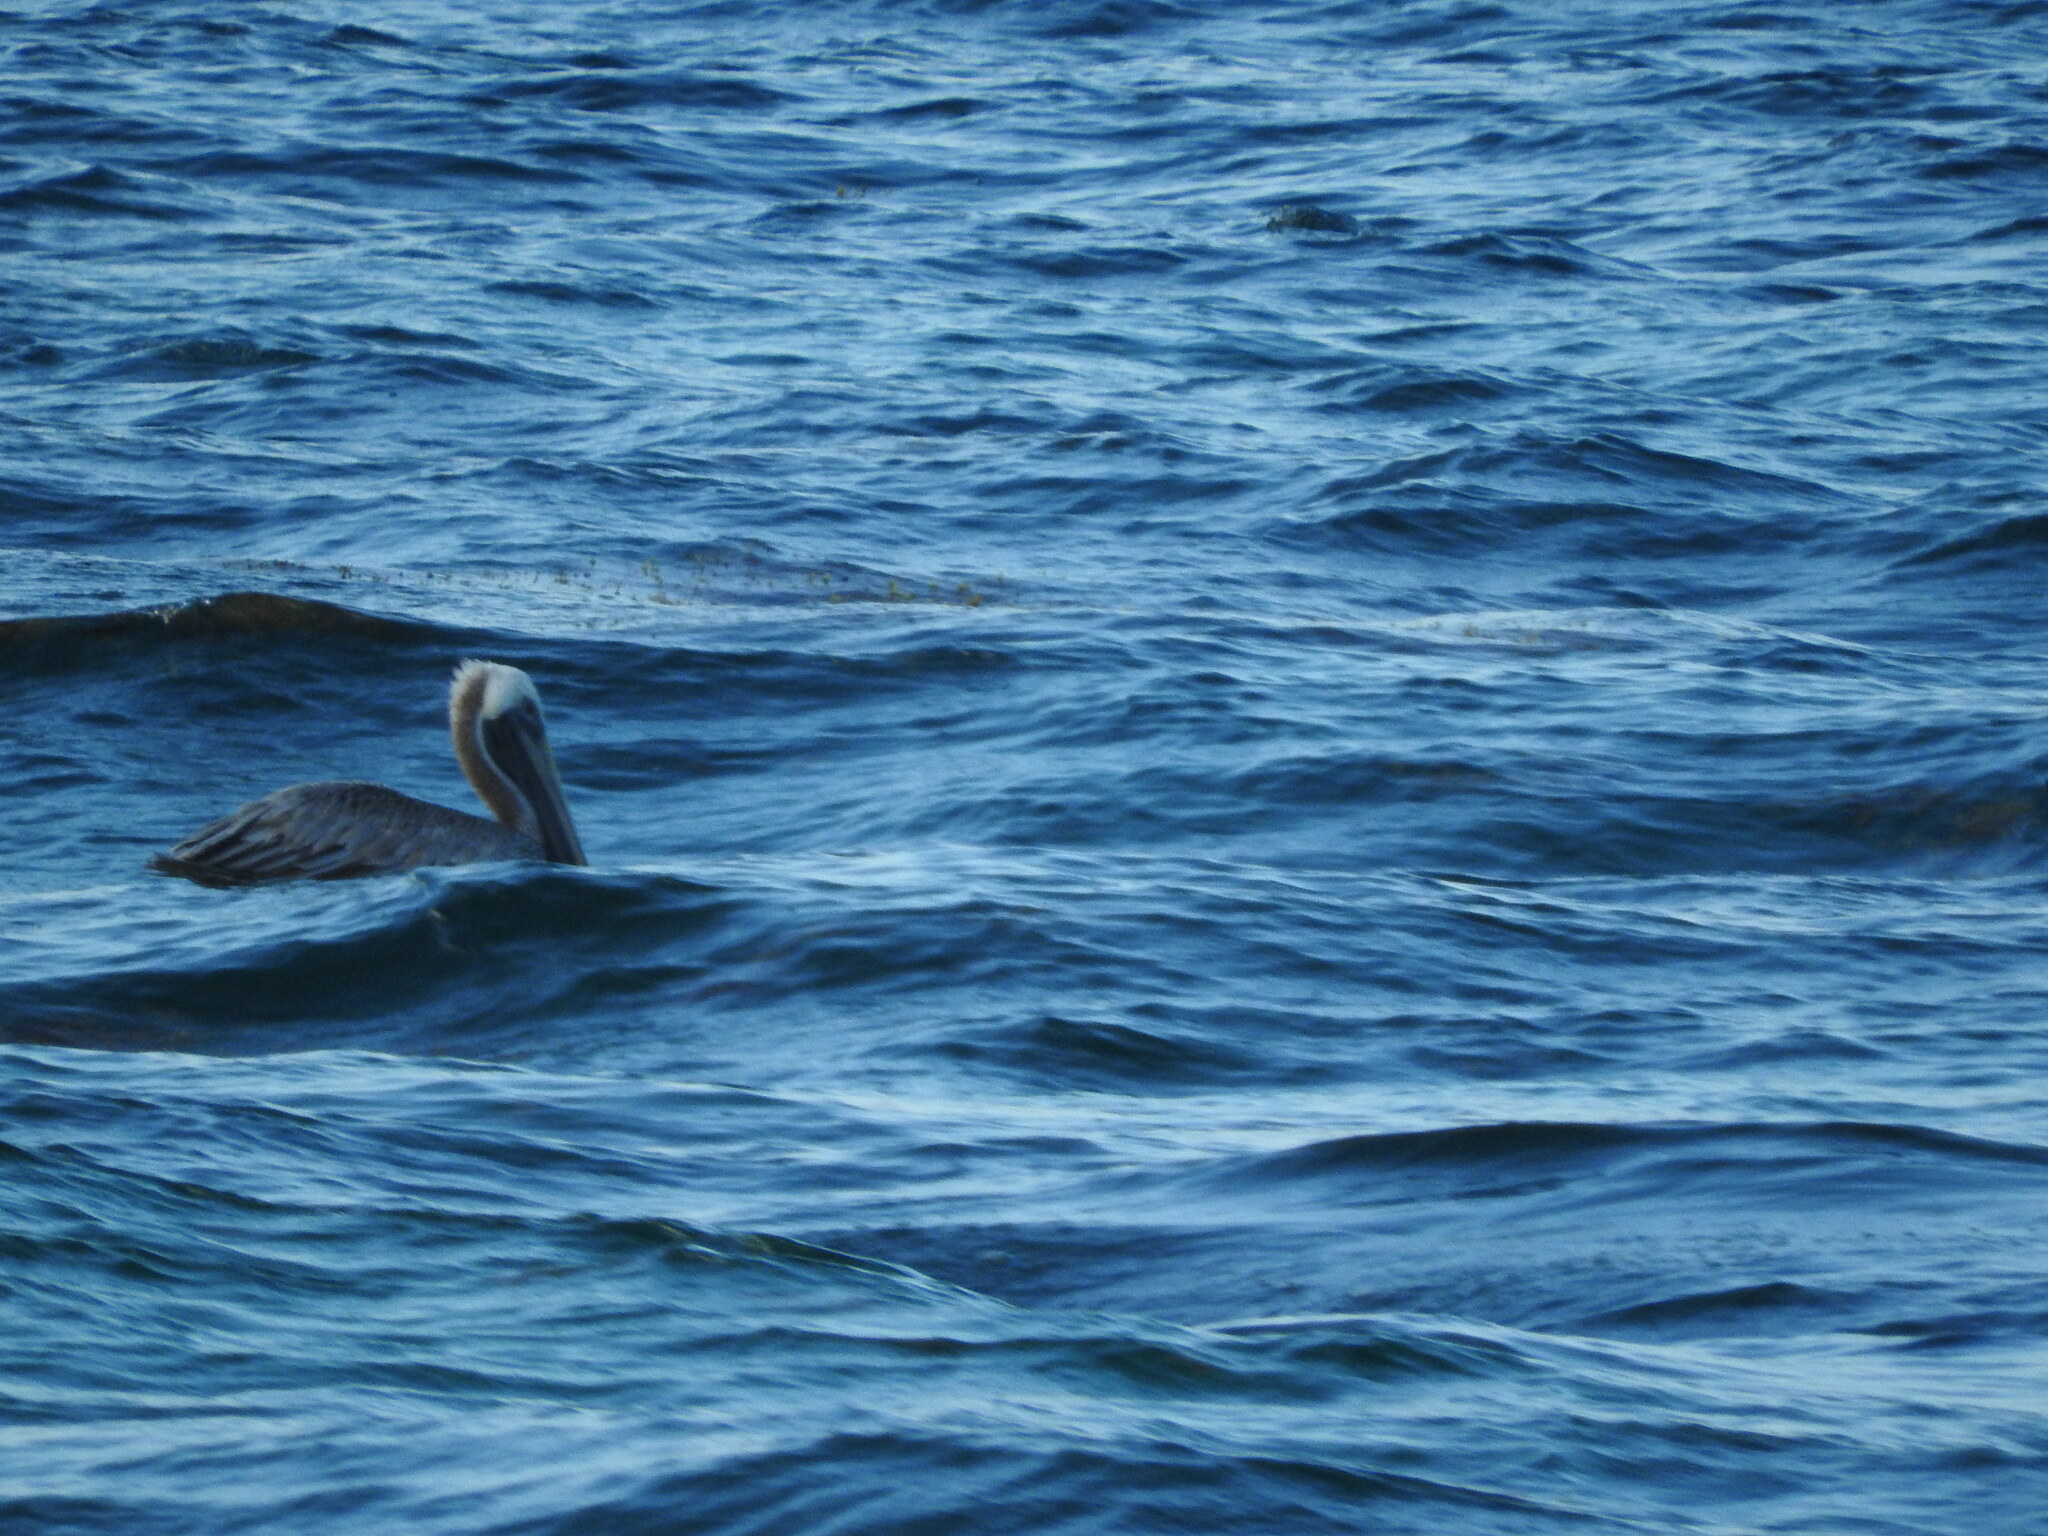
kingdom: Animalia
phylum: Chordata
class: Aves
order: Pelecaniformes
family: Pelecanidae
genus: Pelecanus
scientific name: Pelecanus occidentalis
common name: Brown pelican
